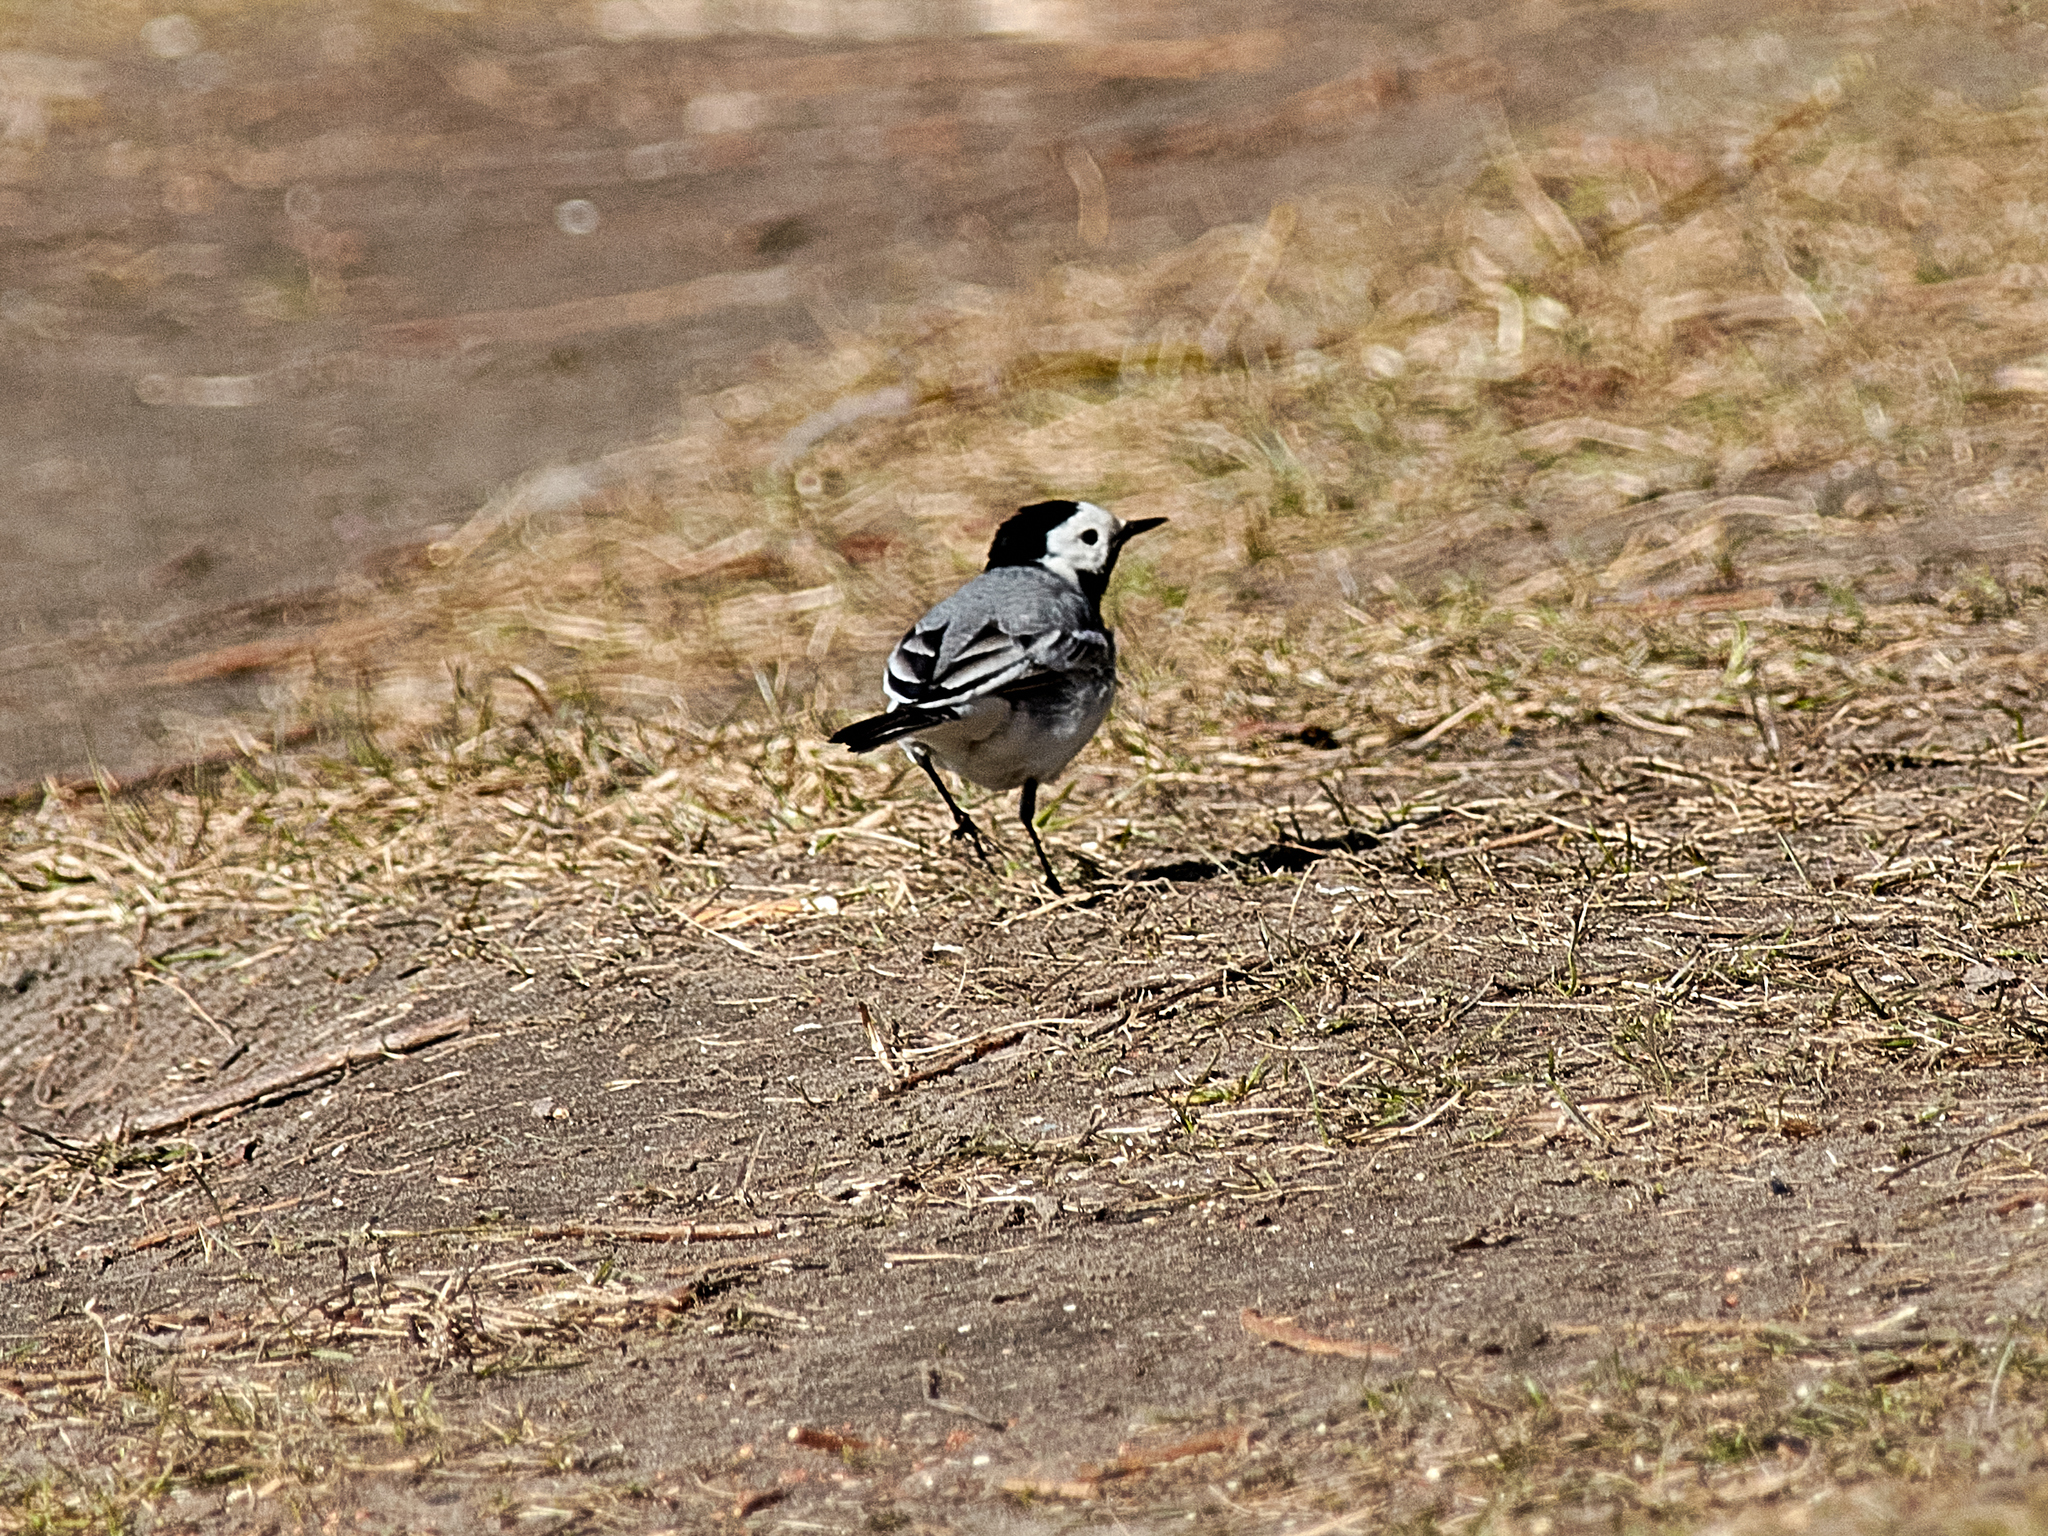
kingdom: Animalia
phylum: Chordata
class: Aves
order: Passeriformes
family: Motacillidae
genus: Motacilla
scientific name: Motacilla alba
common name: White wagtail
